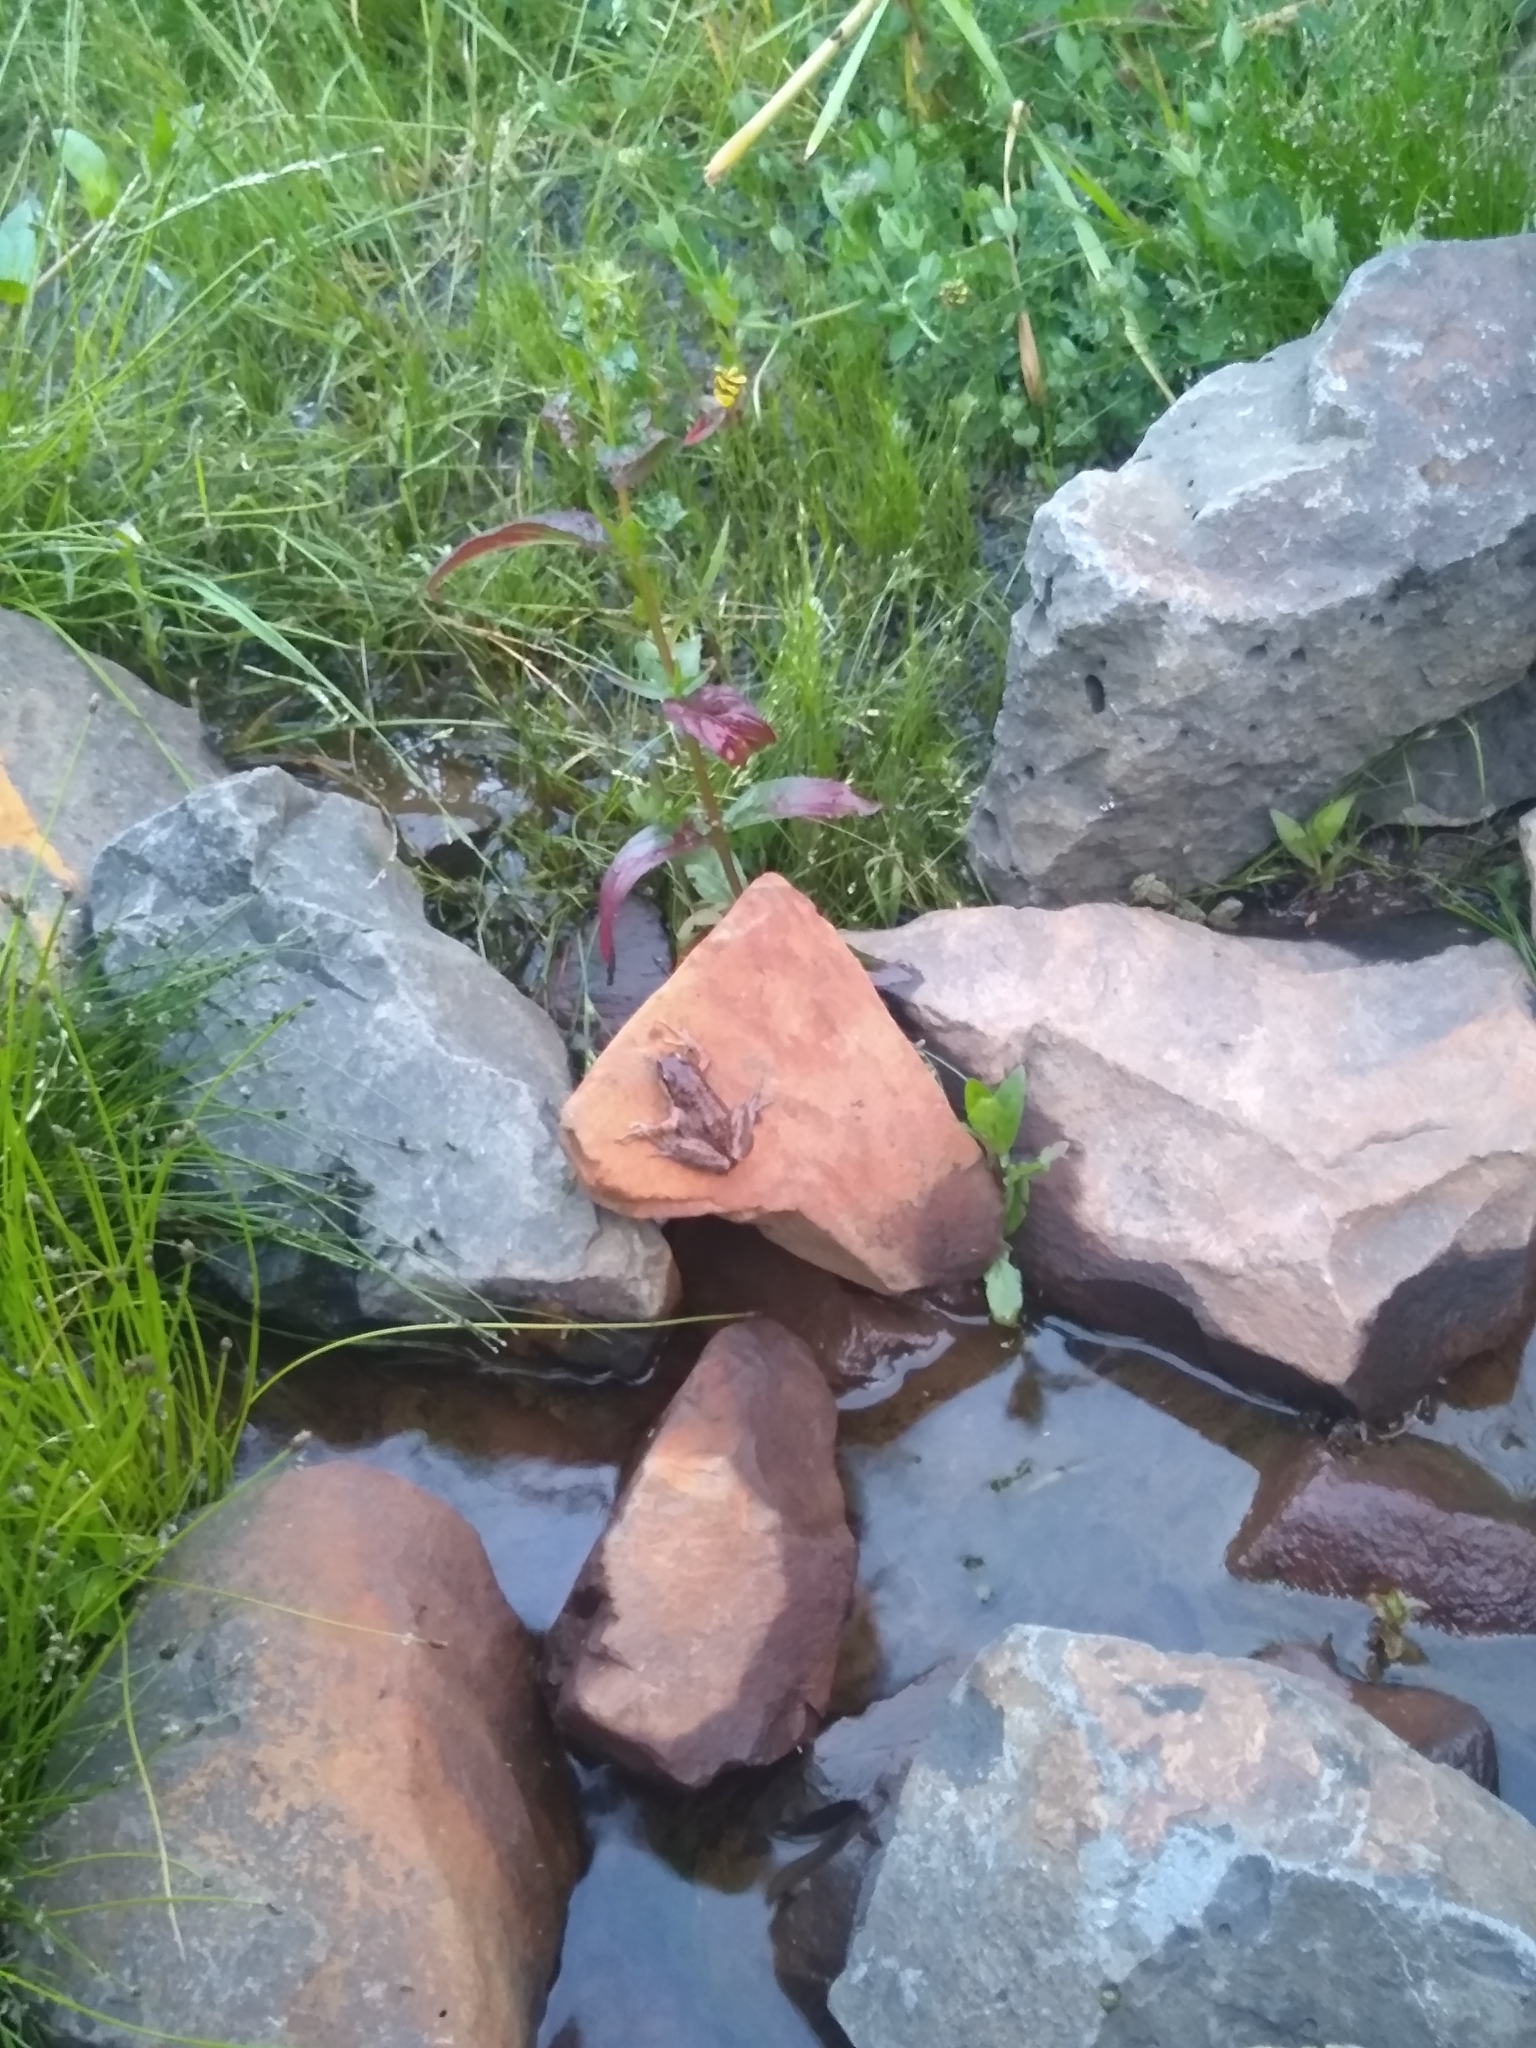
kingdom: Animalia
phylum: Chordata
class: Amphibia
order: Anura
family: Hylidae
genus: Pseudacris
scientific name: Pseudacris regilla
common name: Pacific chorus frog
